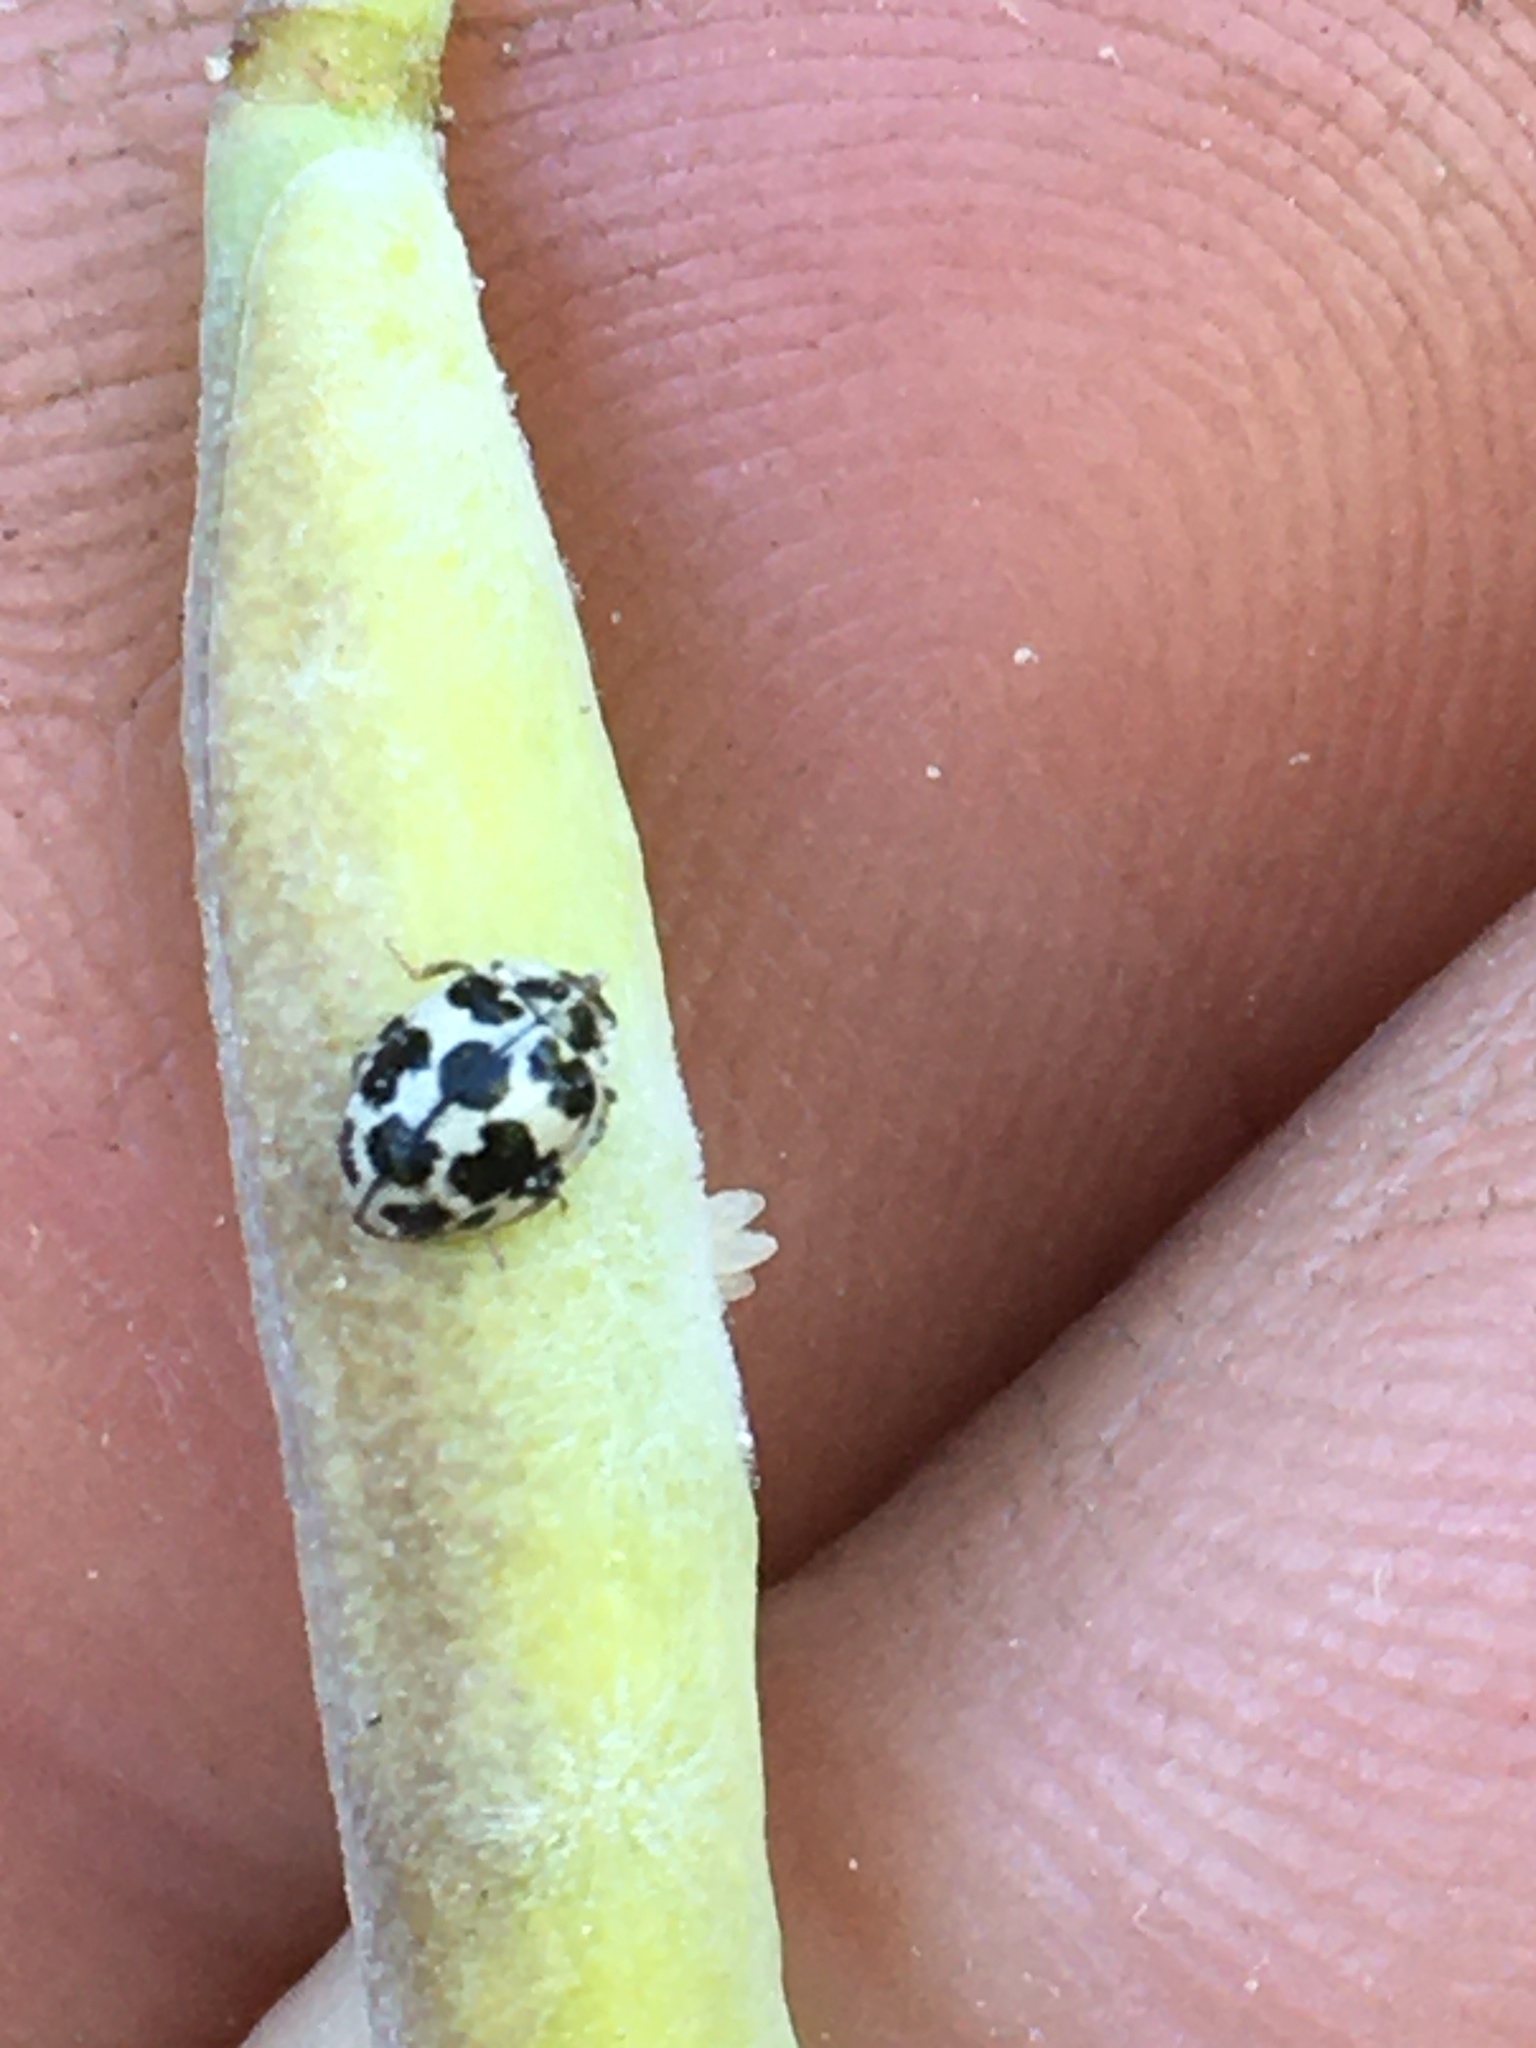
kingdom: Animalia
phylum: Arthropoda
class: Insecta
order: Coleoptera
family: Coccinellidae
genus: Psyllobora
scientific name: Psyllobora
